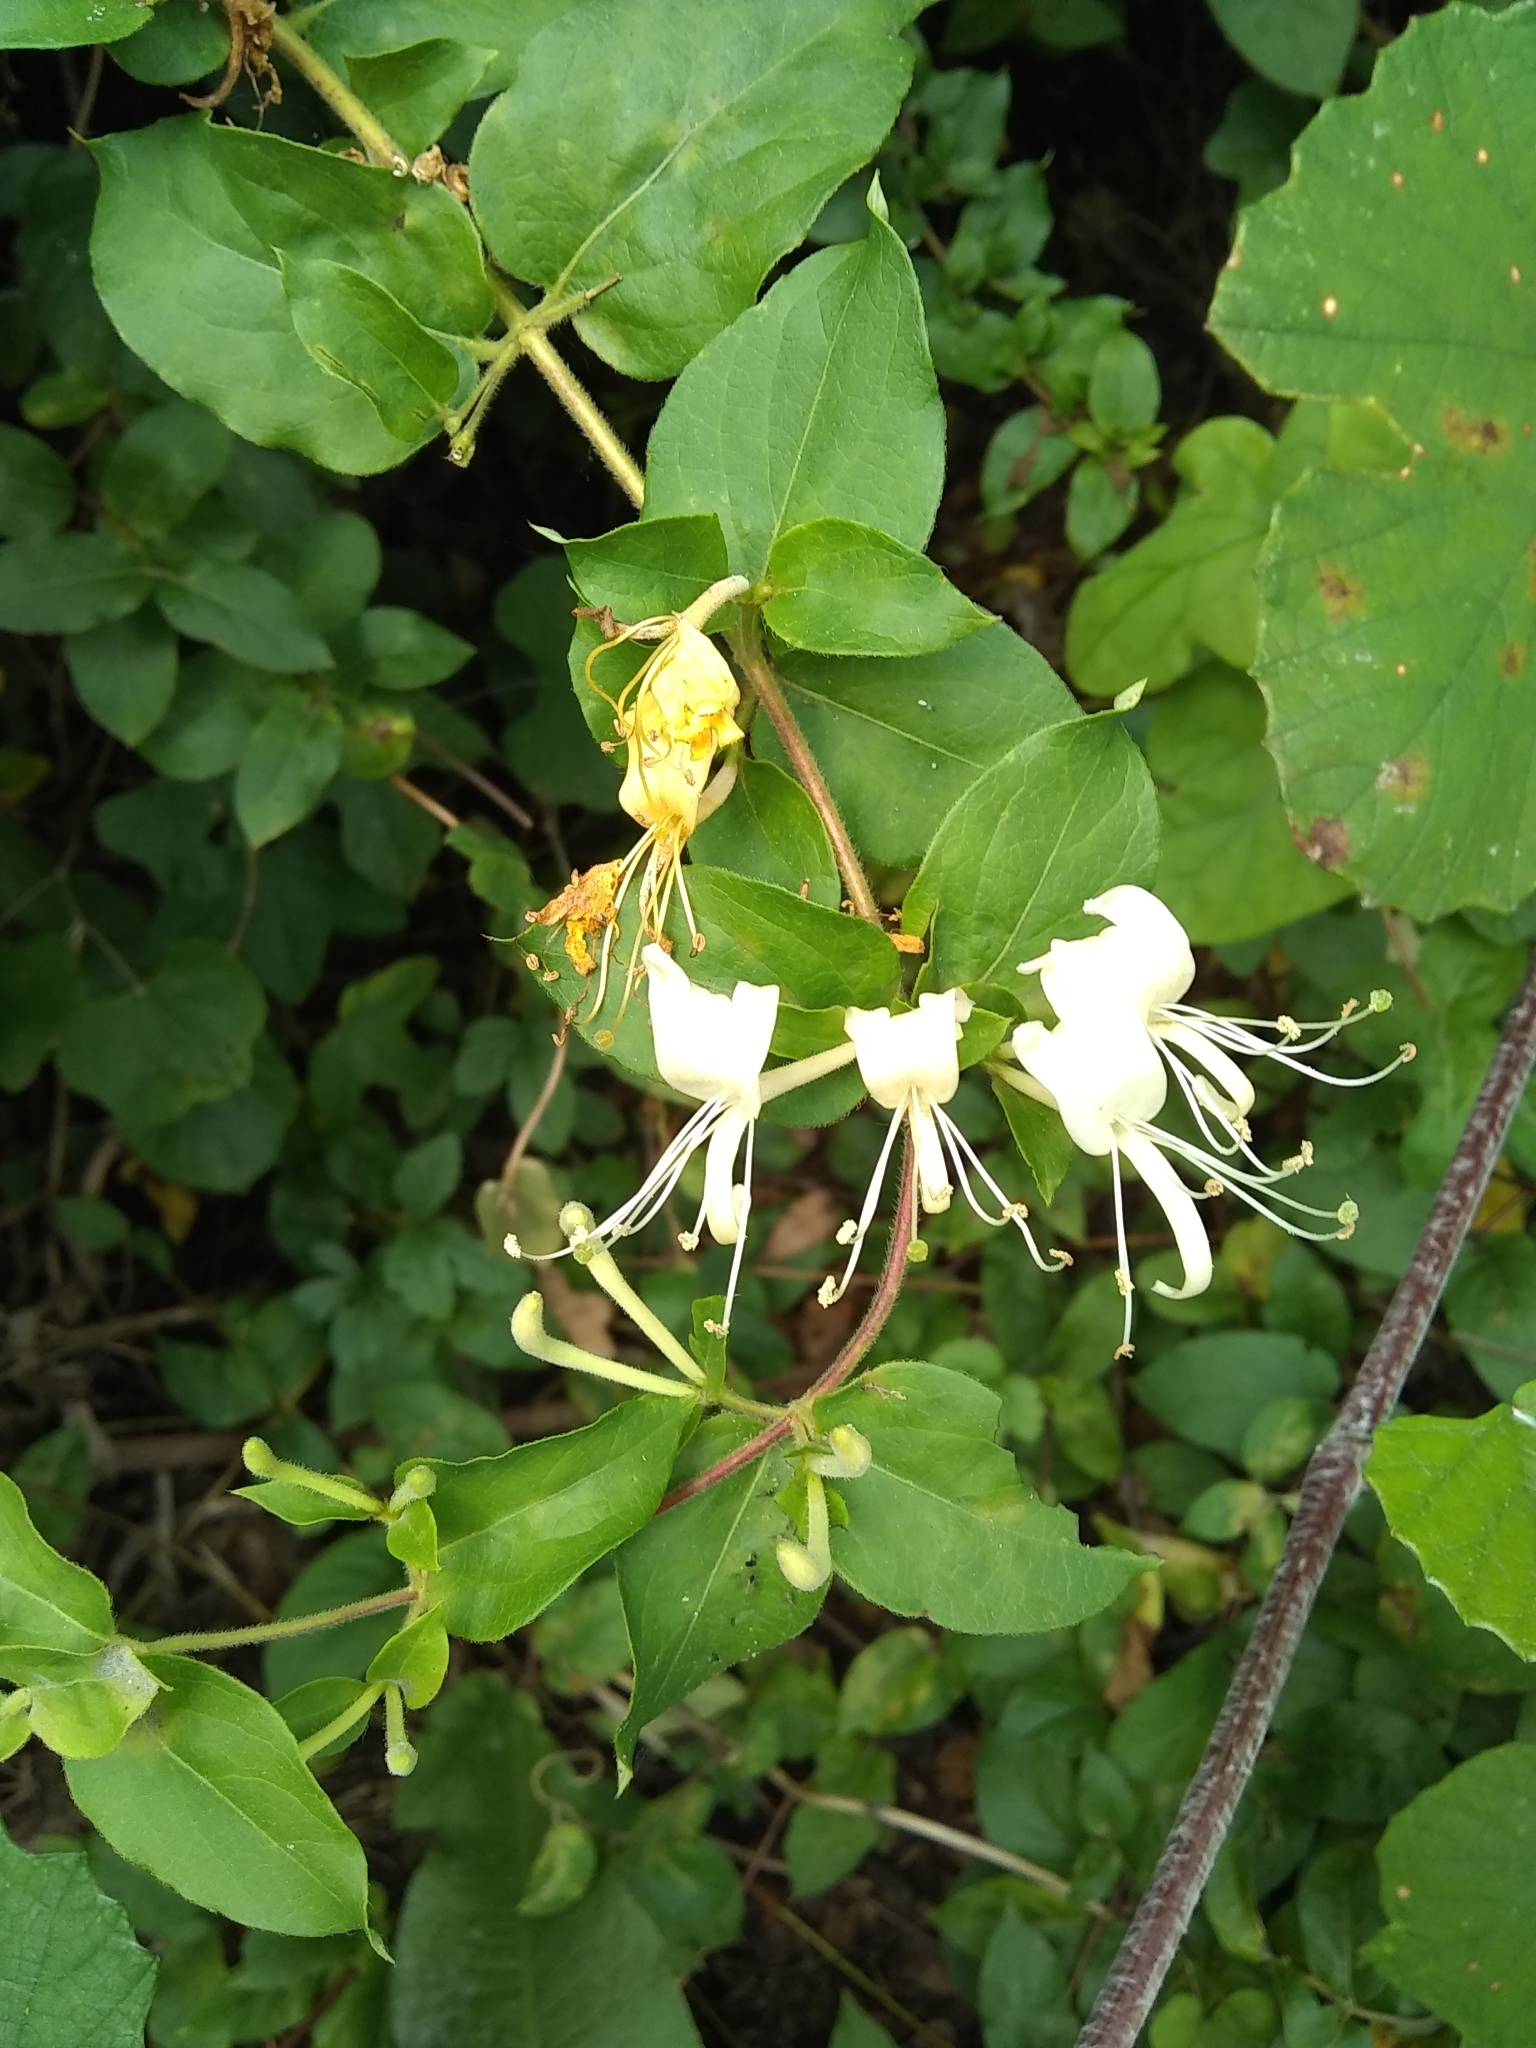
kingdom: Plantae
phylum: Tracheophyta
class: Magnoliopsida
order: Dipsacales
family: Caprifoliaceae
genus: Lonicera
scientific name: Lonicera japonica
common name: Japanese honeysuckle
